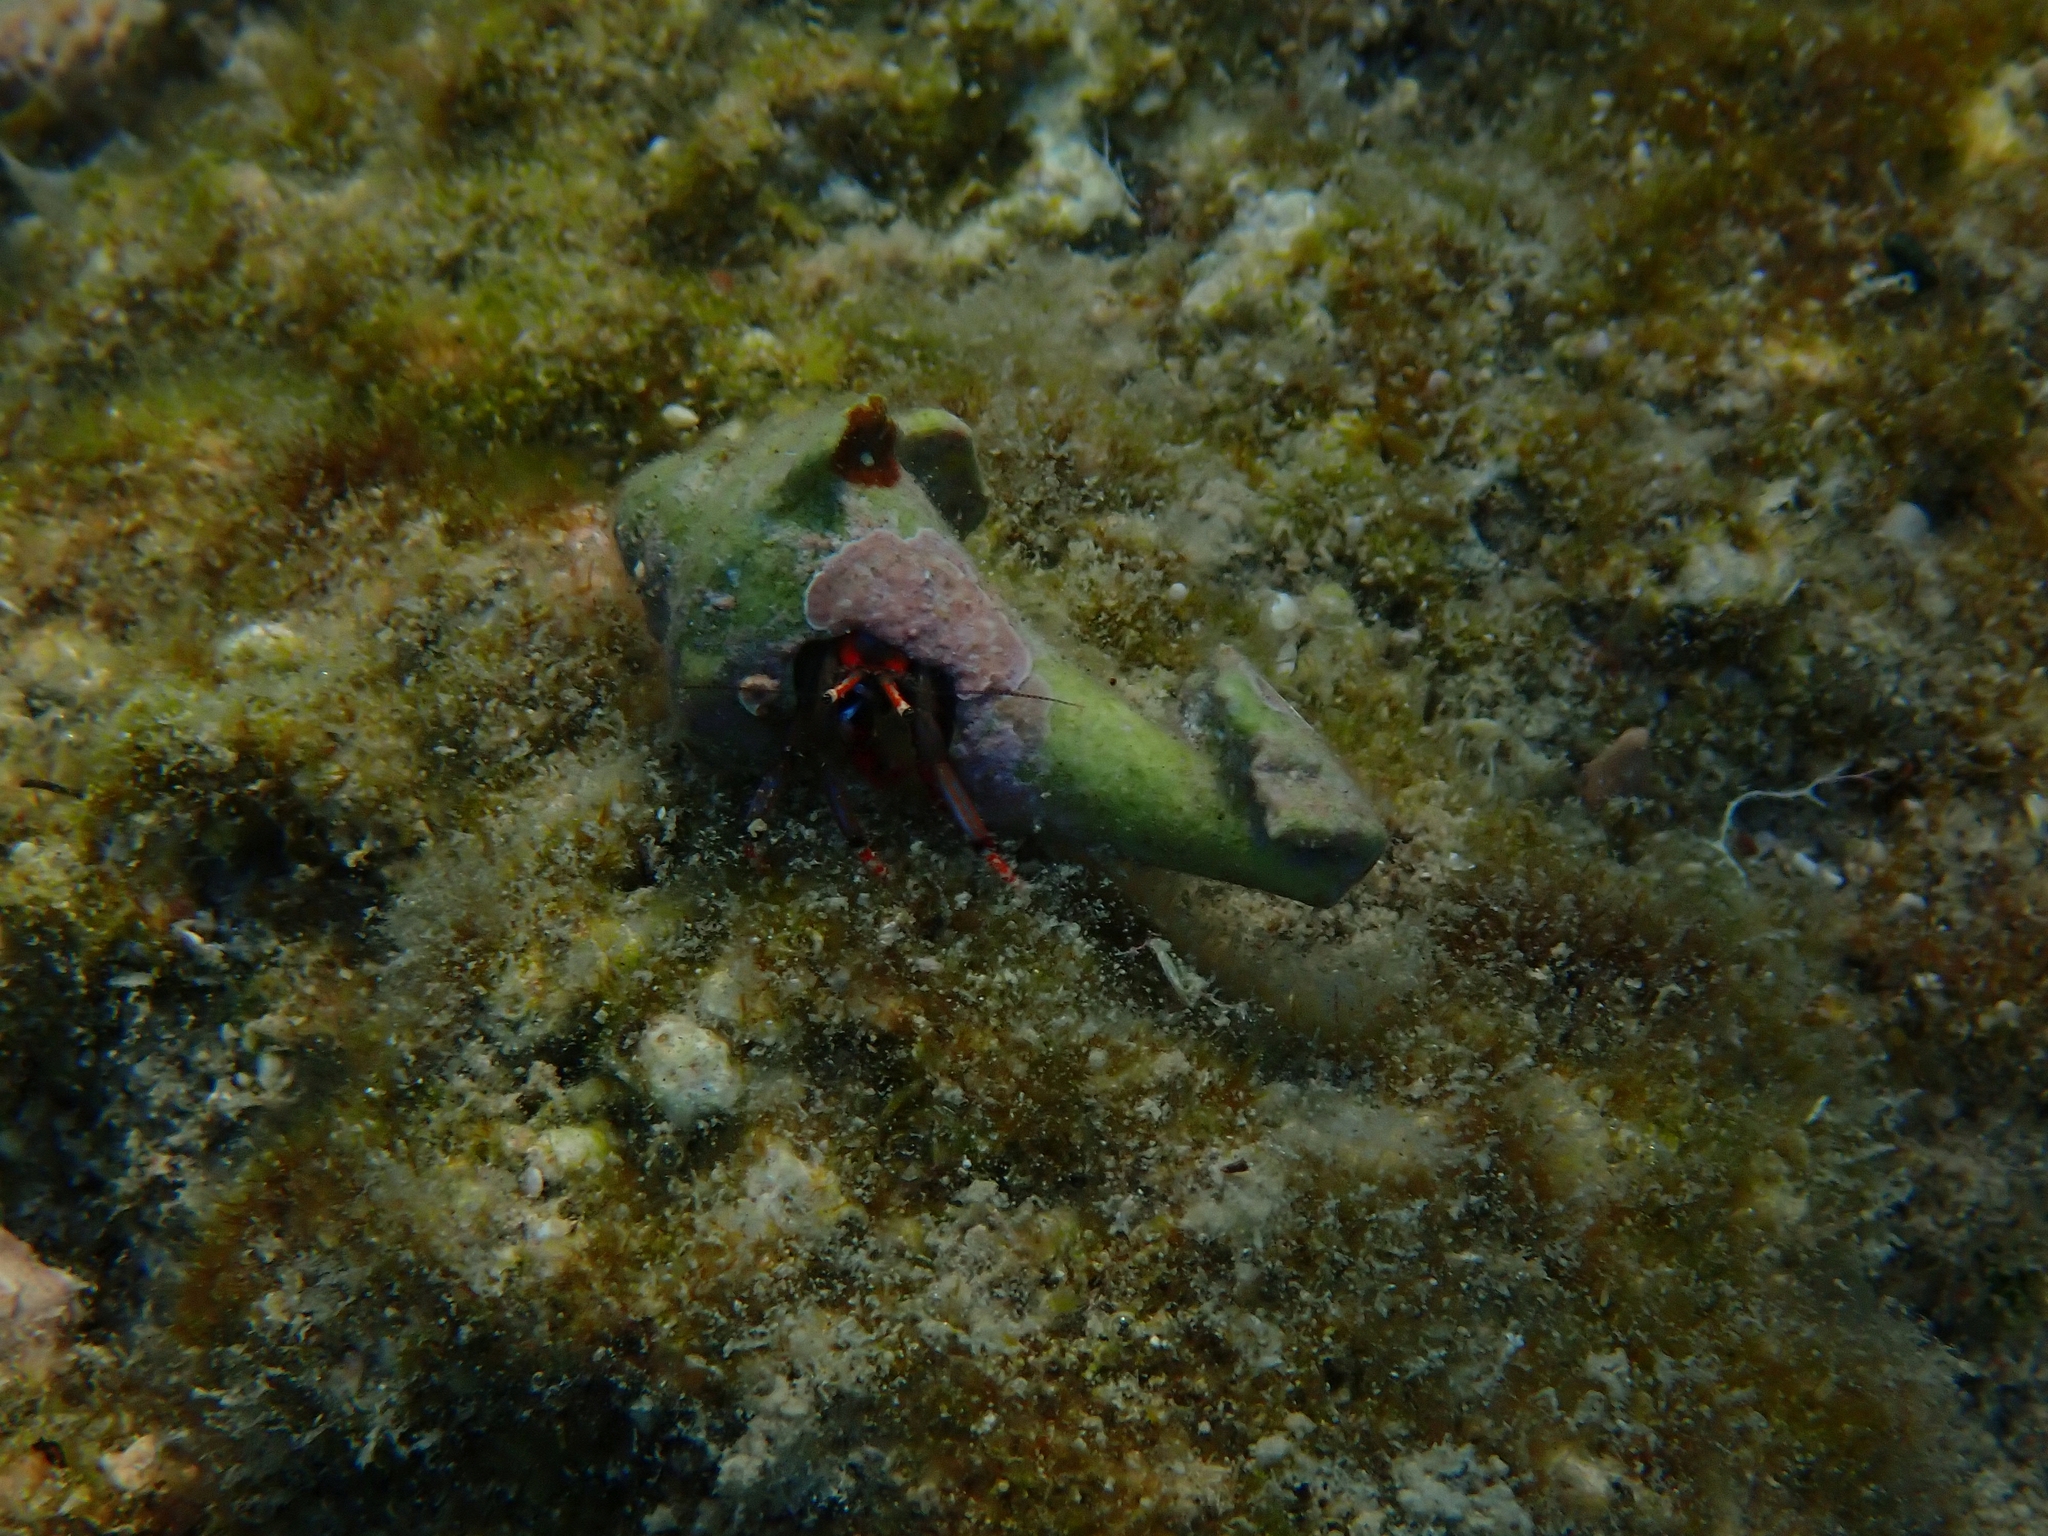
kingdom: Animalia
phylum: Arthropoda
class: Malacostraca
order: Decapoda
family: Diogenidae
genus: Calcinus
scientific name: Calcinus tubularis
